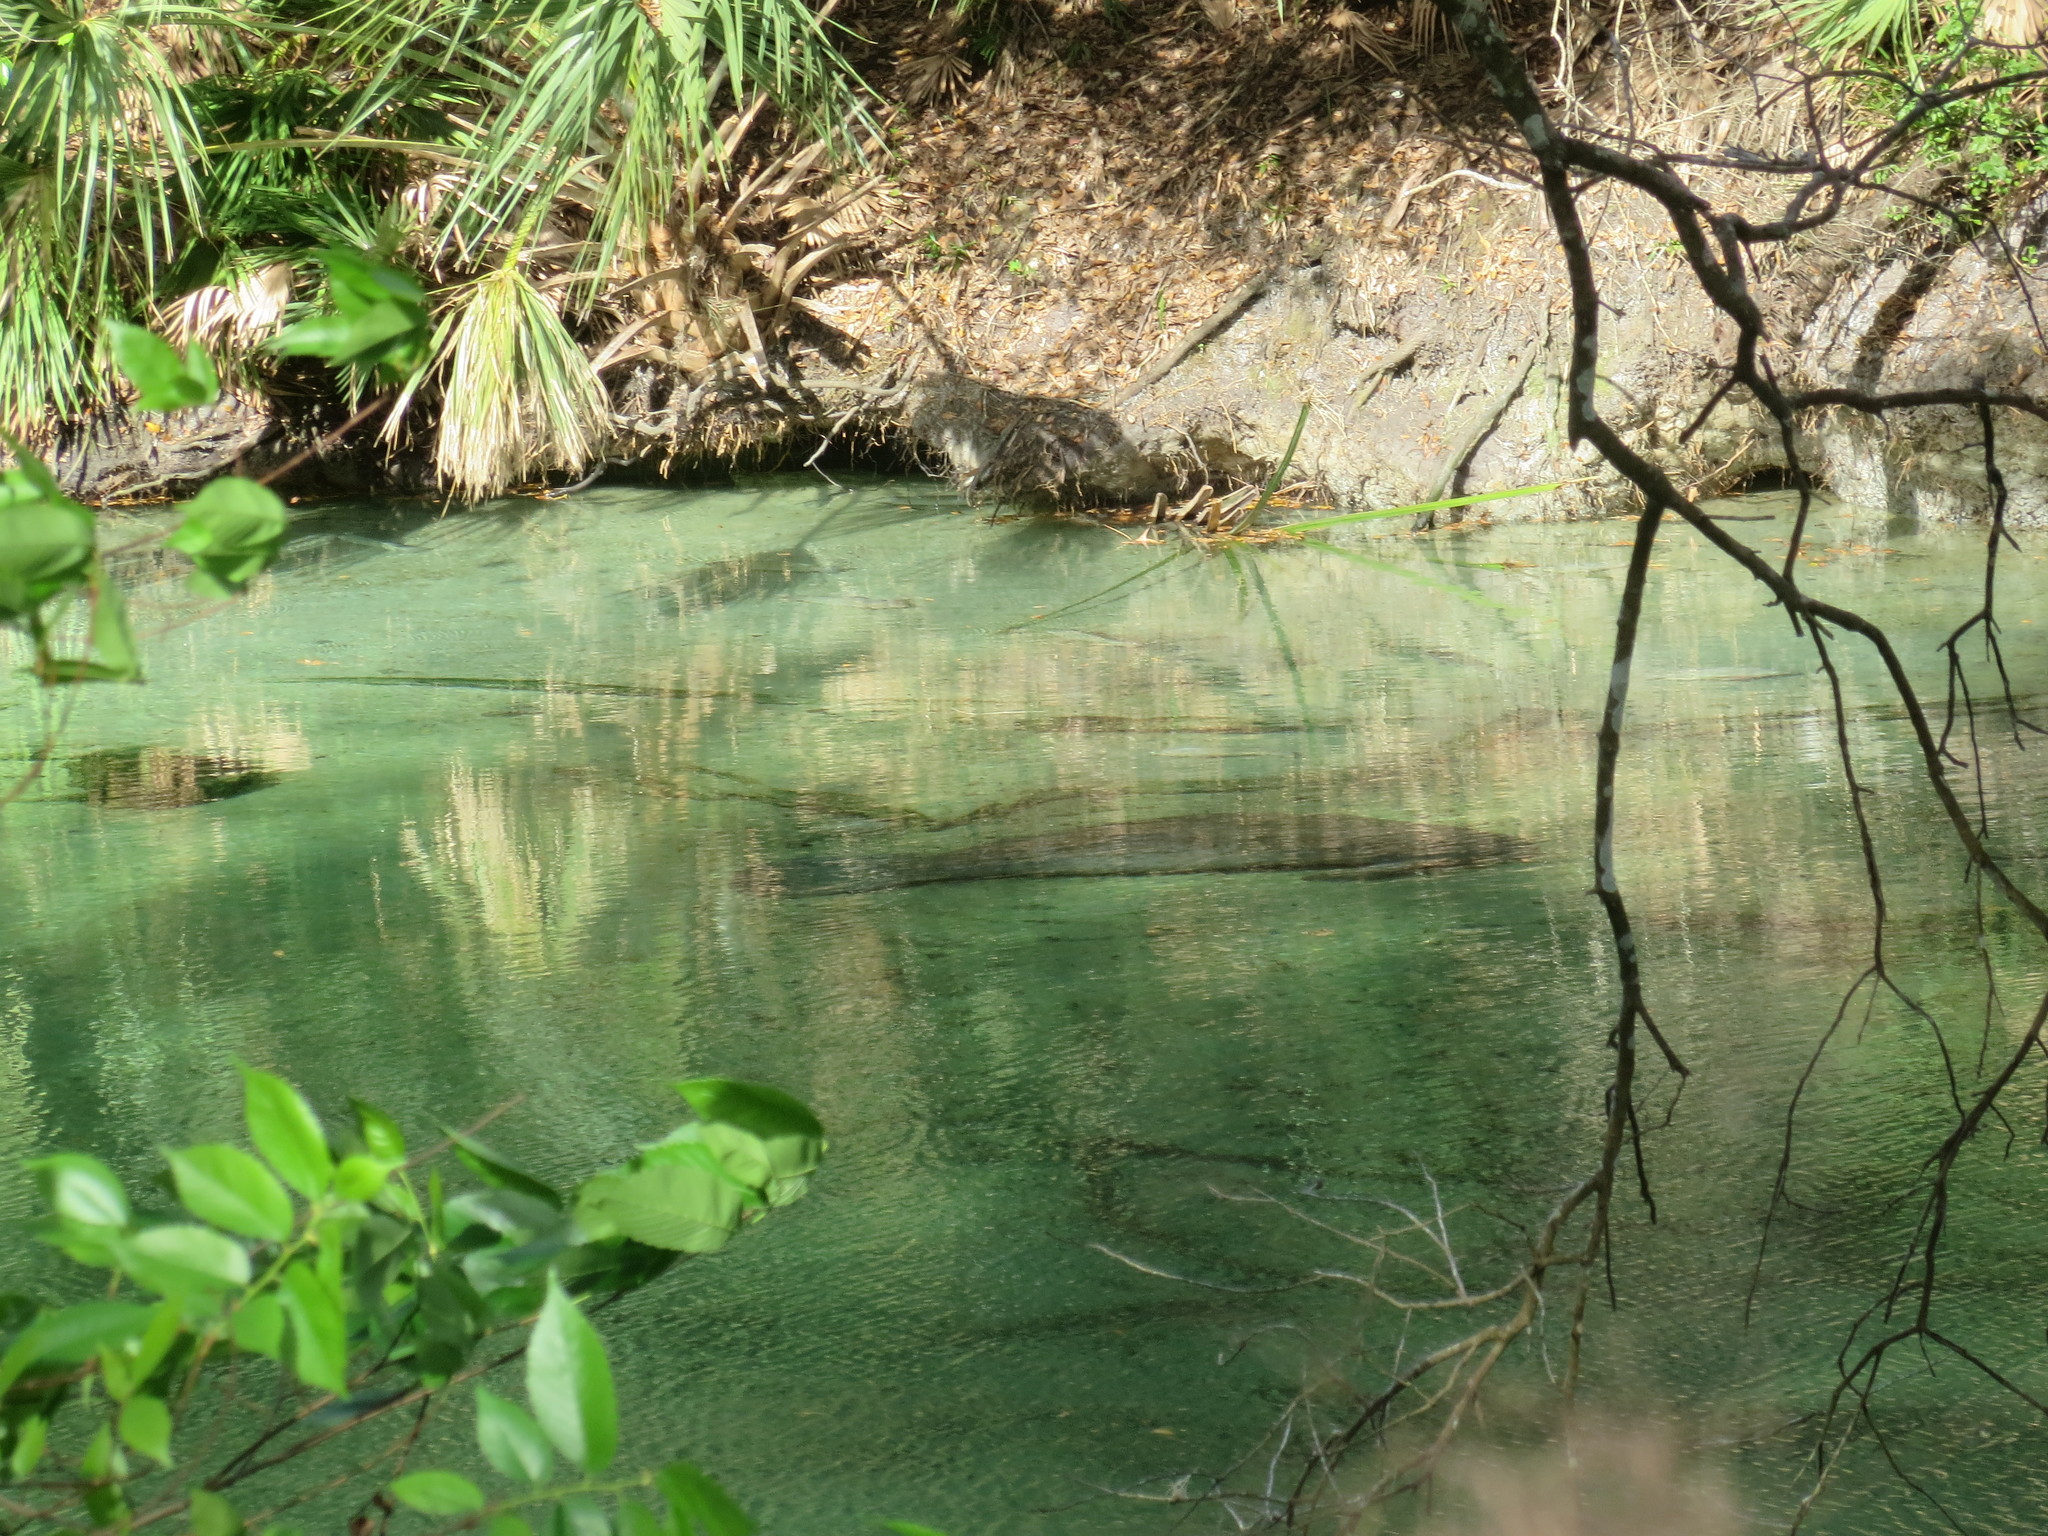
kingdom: Animalia
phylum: Chordata
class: Mammalia
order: Sirenia
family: Trichechidae
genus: Trichechus
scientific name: Trichechus manatus
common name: West indian manatee
